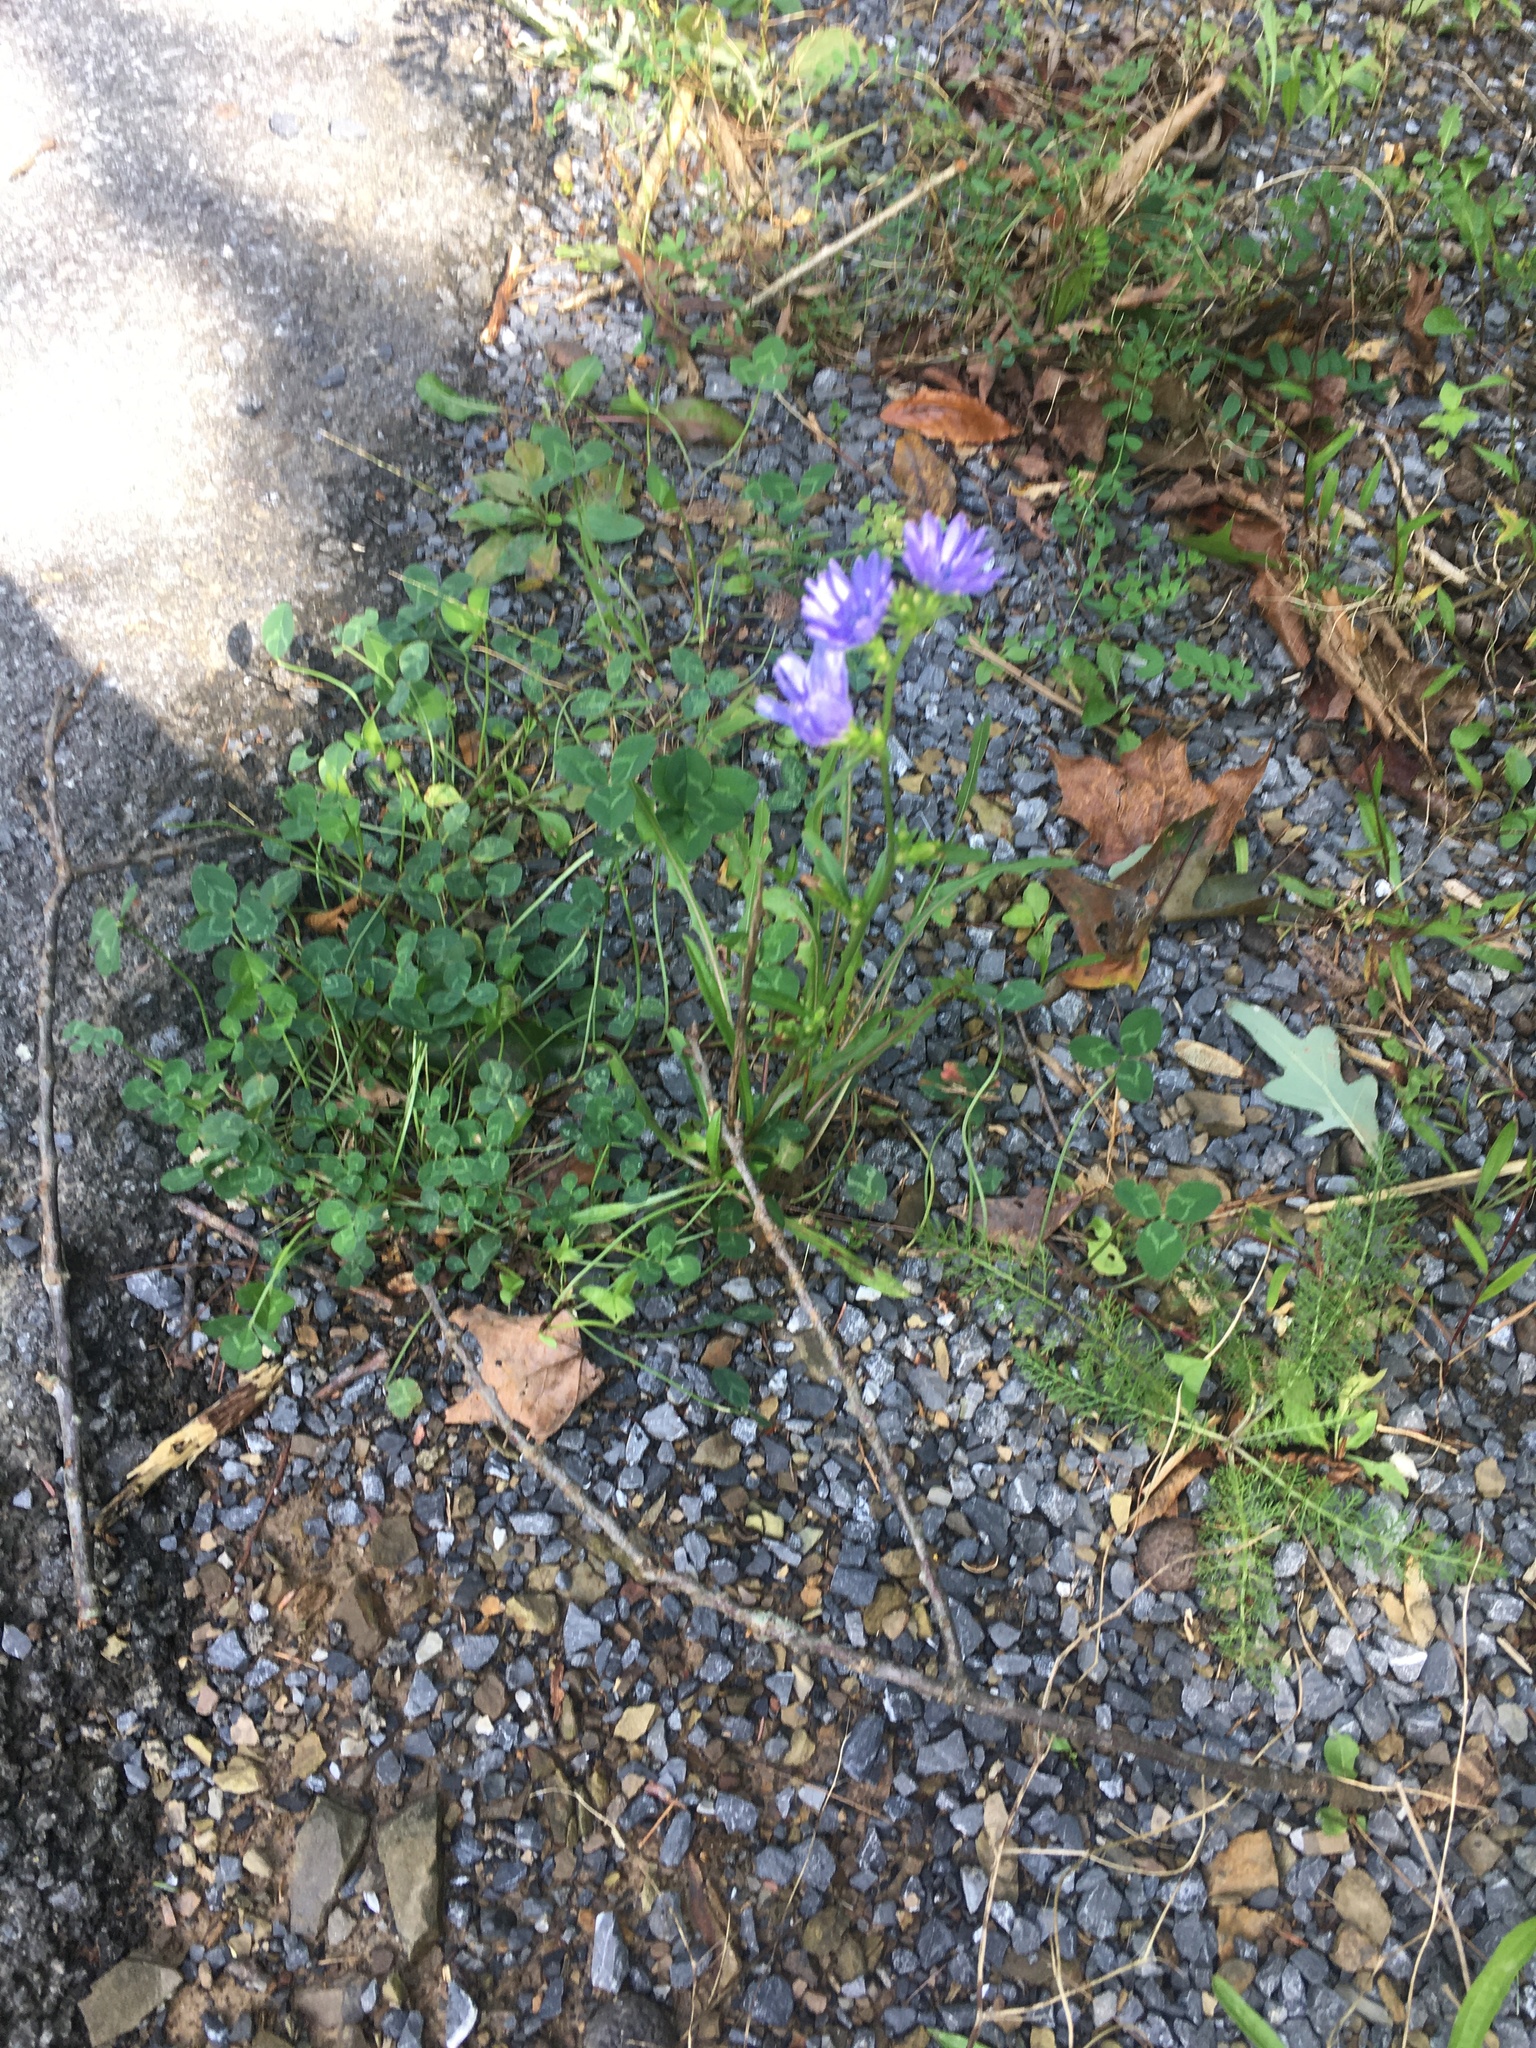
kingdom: Plantae
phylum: Tracheophyta
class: Magnoliopsida
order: Asterales
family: Asteraceae
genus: Cichorium
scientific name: Cichorium intybus
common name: Chicory
